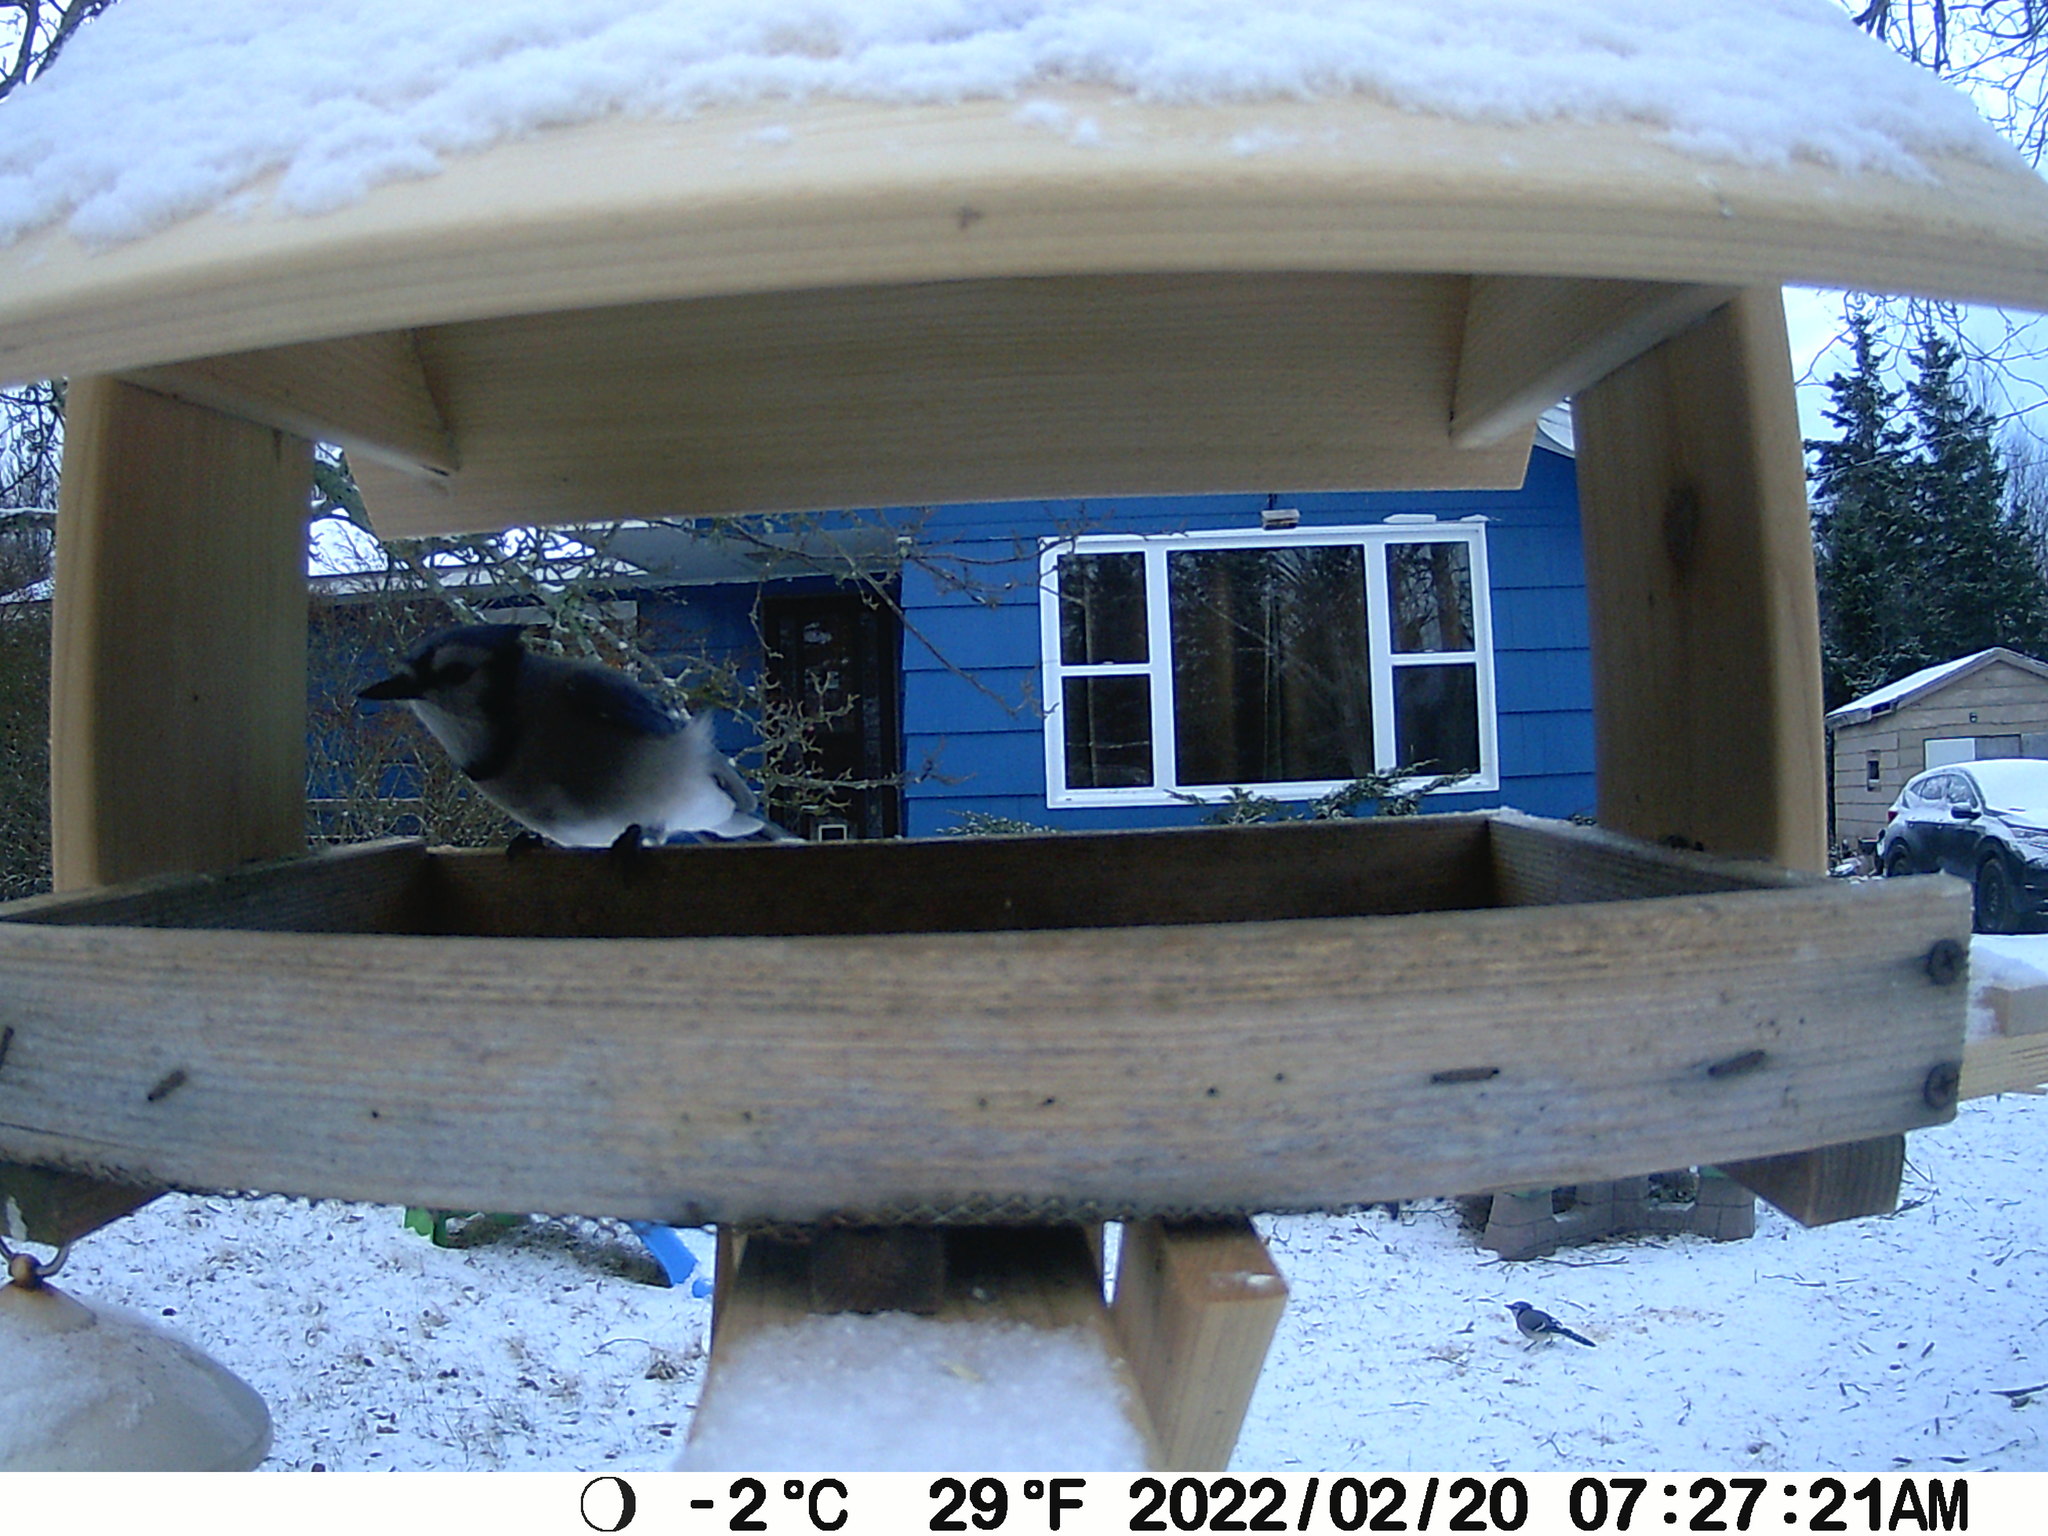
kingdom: Animalia
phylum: Chordata
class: Aves
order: Passeriformes
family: Corvidae
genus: Cyanocitta
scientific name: Cyanocitta cristata
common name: Blue jay
